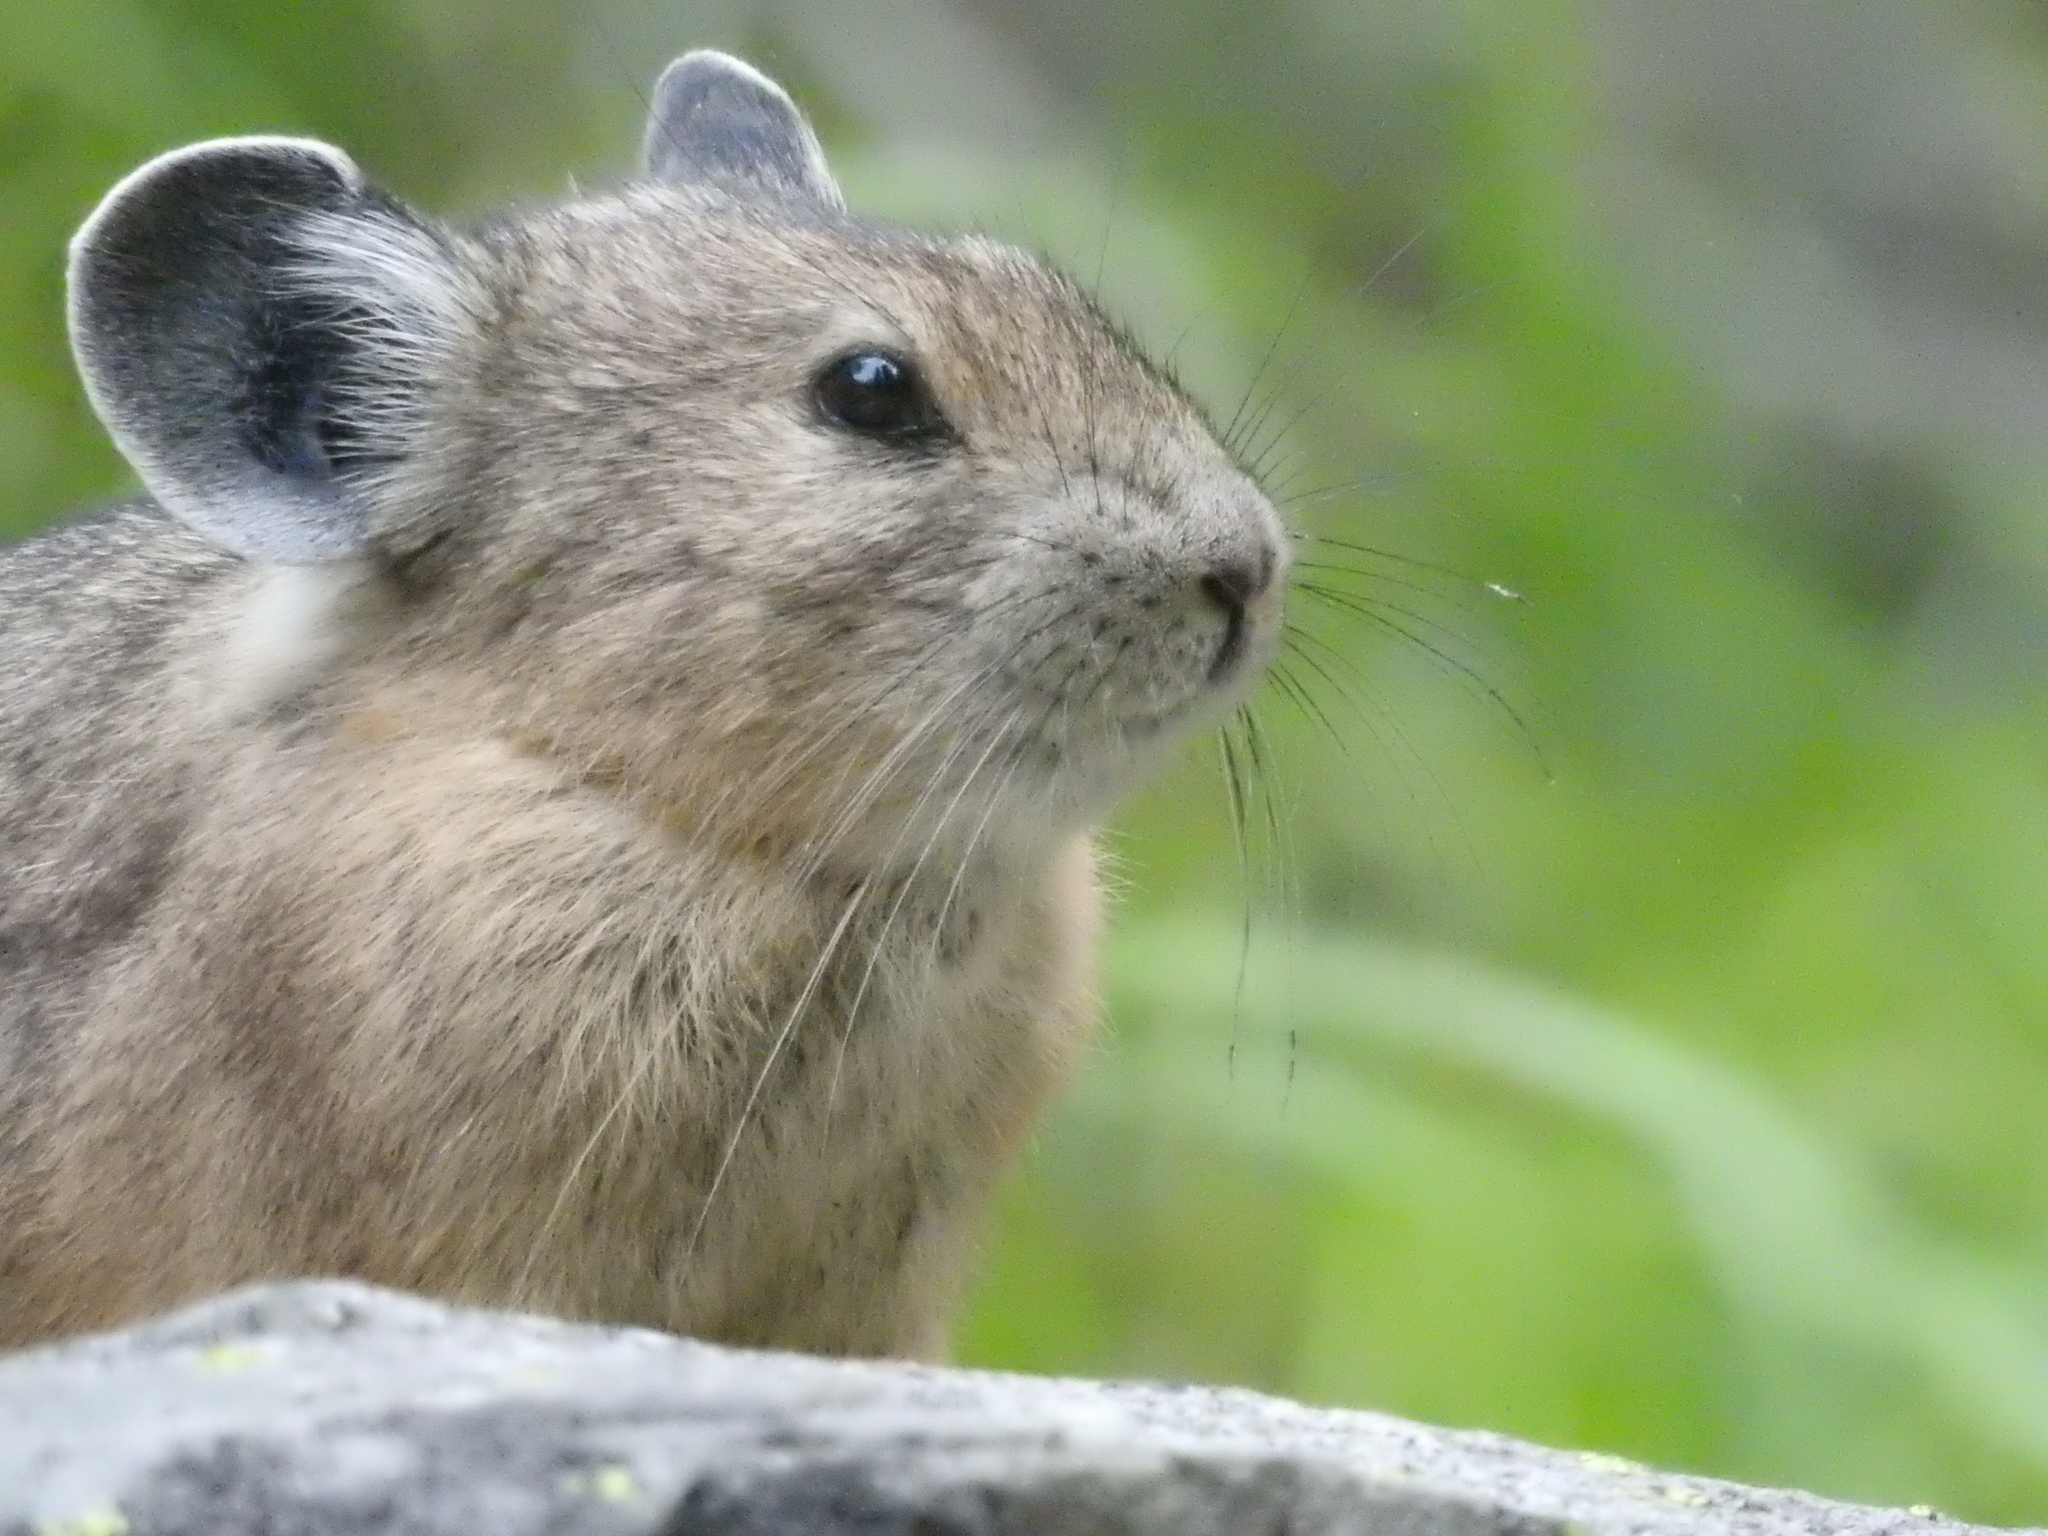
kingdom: Animalia
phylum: Chordata
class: Mammalia
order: Lagomorpha
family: Ochotonidae
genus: Ochotona
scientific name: Ochotona princeps
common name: American pika
